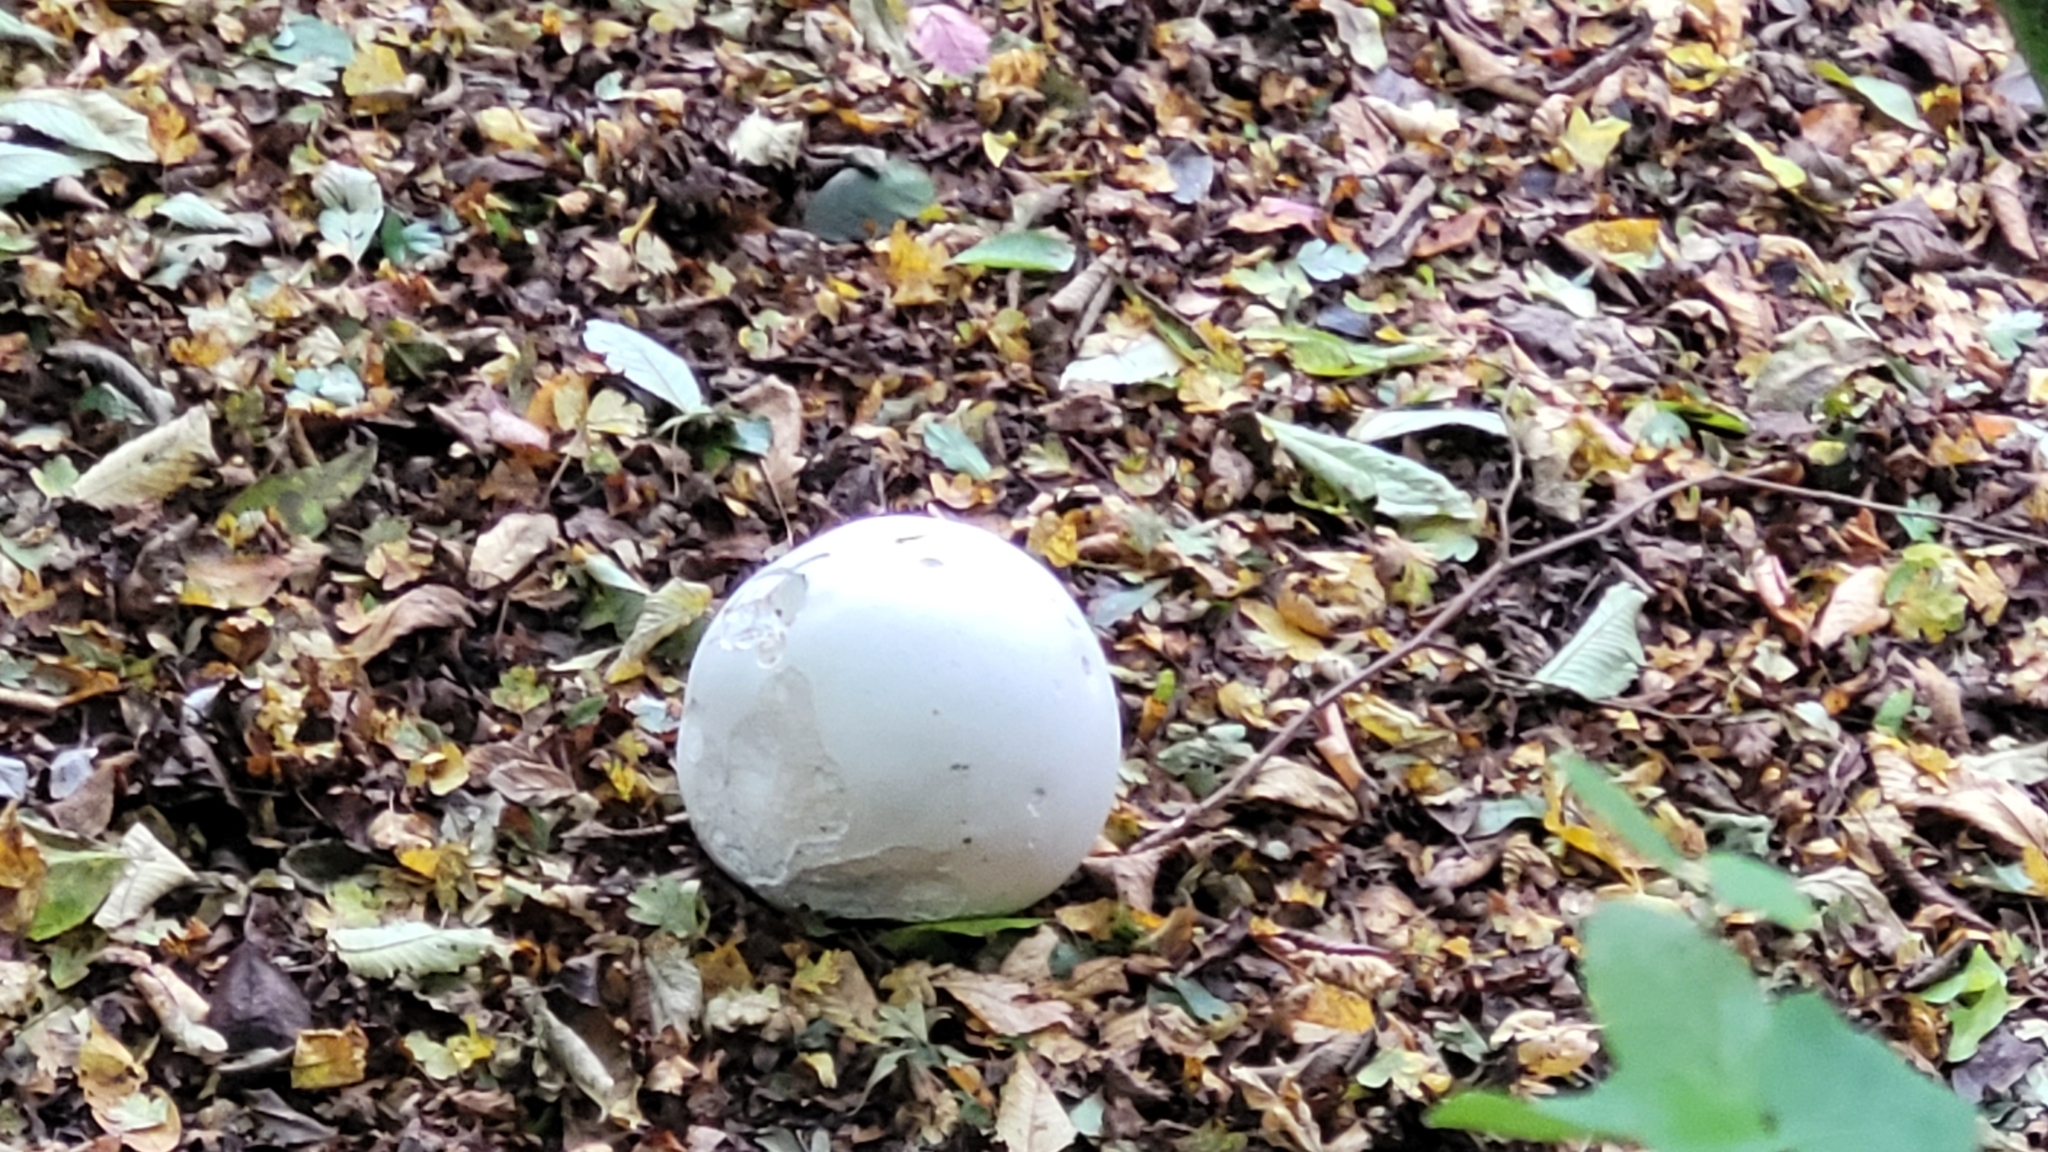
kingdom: Fungi
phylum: Basidiomycota
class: Agaricomycetes
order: Agaricales
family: Lycoperdaceae
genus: Calvatia
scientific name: Calvatia gigantea
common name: Giant puffball
